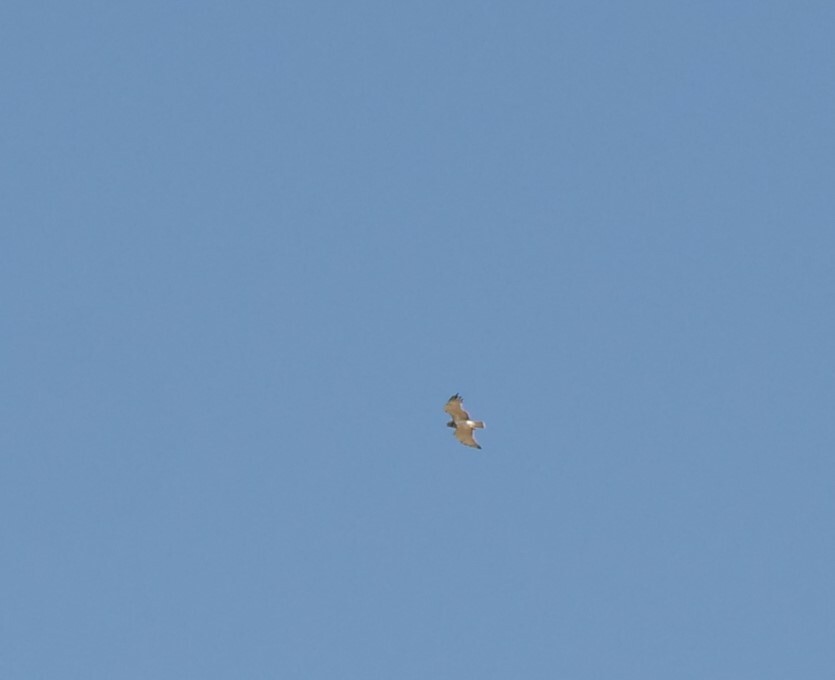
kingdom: Animalia
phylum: Chordata
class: Aves
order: Accipitriformes
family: Accipitridae
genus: Circaetus
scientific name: Circaetus gallicus
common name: Short-toed snake eagle
